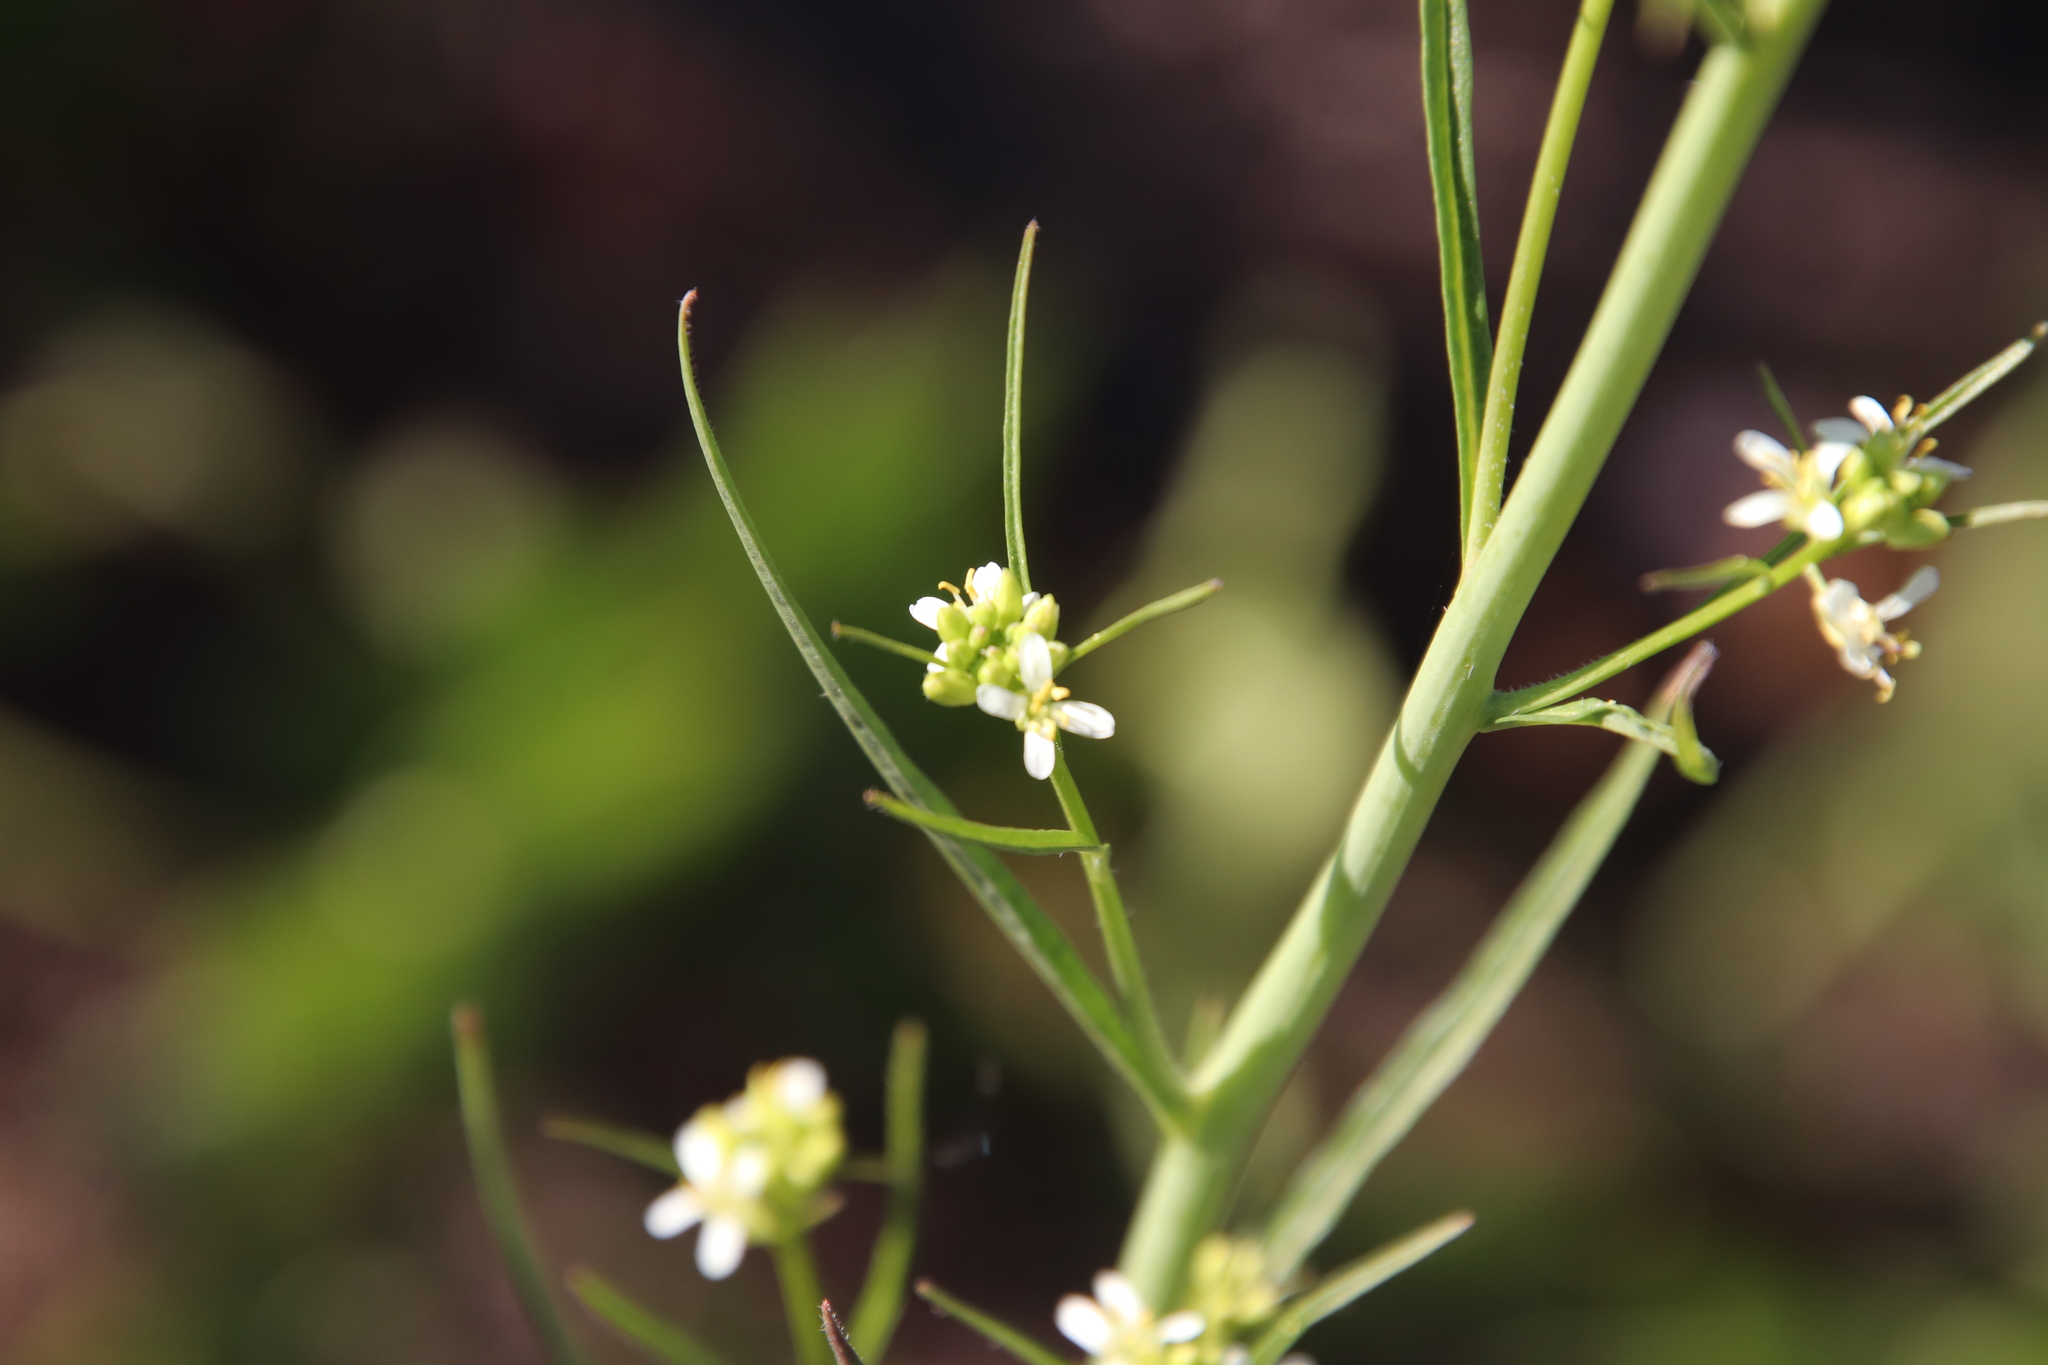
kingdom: Plantae
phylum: Tracheophyta
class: Magnoliopsida
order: Brassicales
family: Brassicaceae
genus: Streptanthus
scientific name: Streptanthus lasiophyllus
